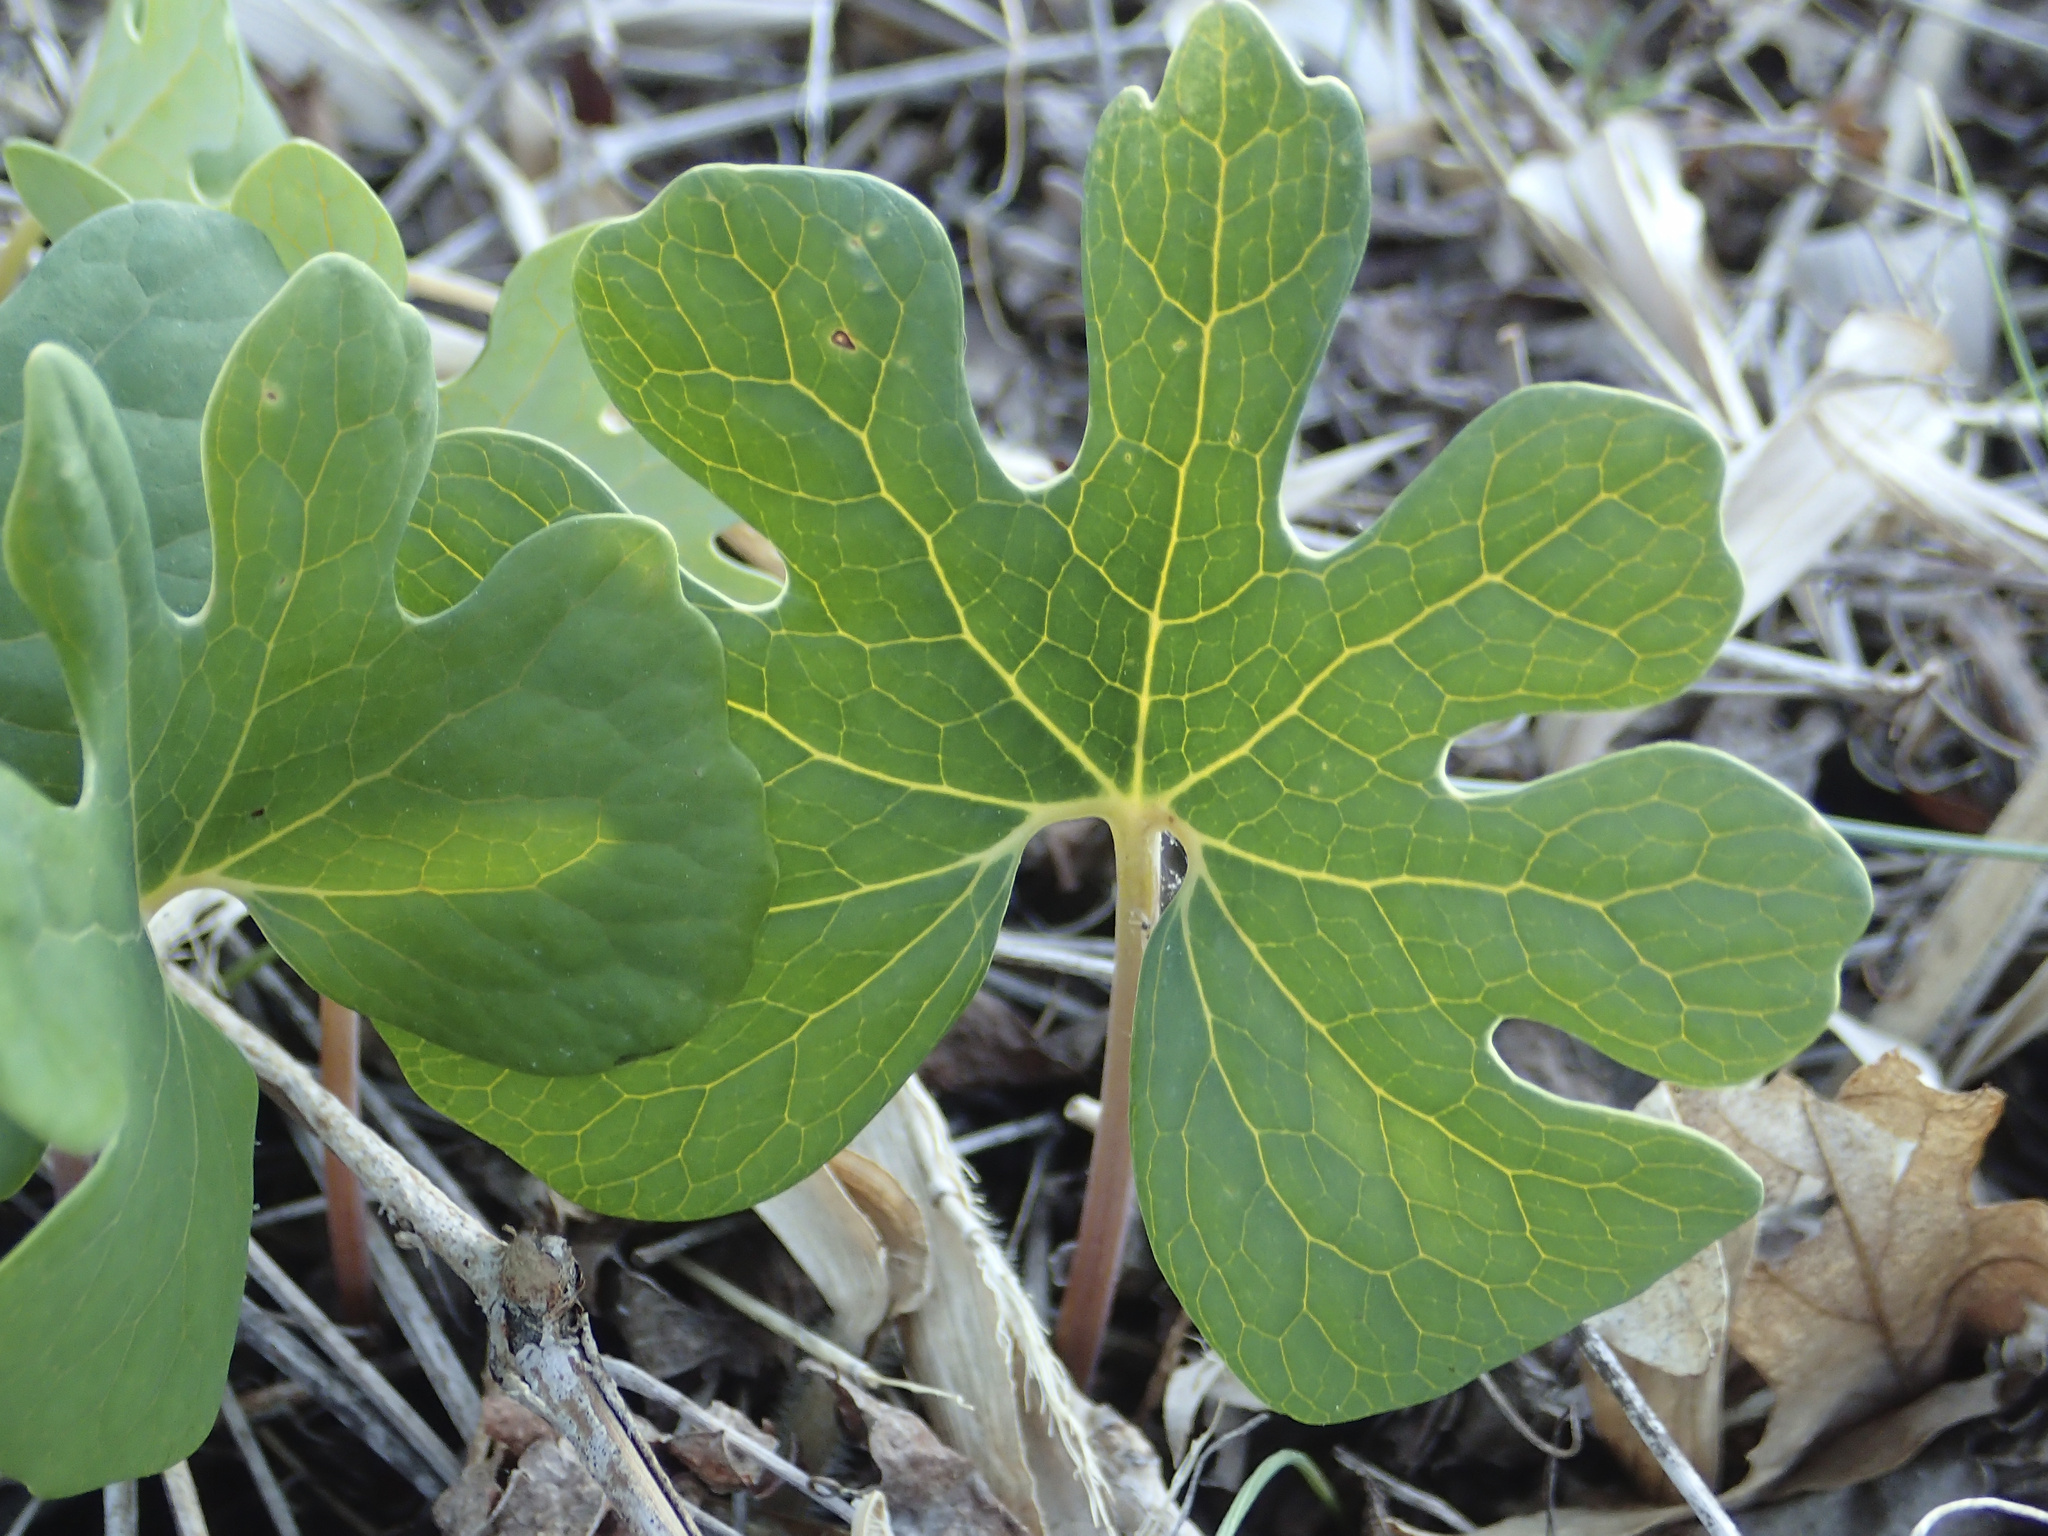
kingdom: Plantae
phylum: Tracheophyta
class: Magnoliopsida
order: Ranunculales
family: Papaveraceae
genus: Sanguinaria
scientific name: Sanguinaria canadensis
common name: Bloodroot
